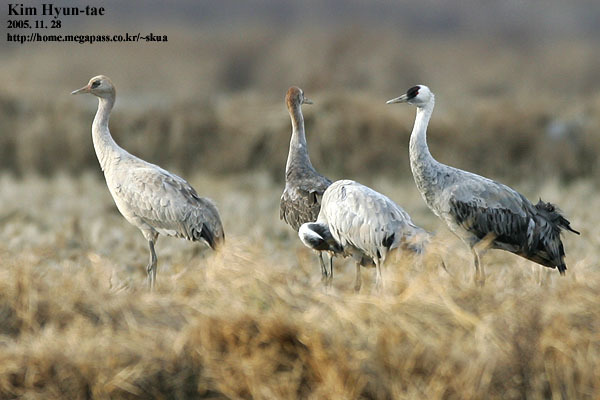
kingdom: Animalia
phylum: Chordata
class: Aves
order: Gruiformes
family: Gruidae
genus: Grus
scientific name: Grus monacha
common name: Hooded crane
